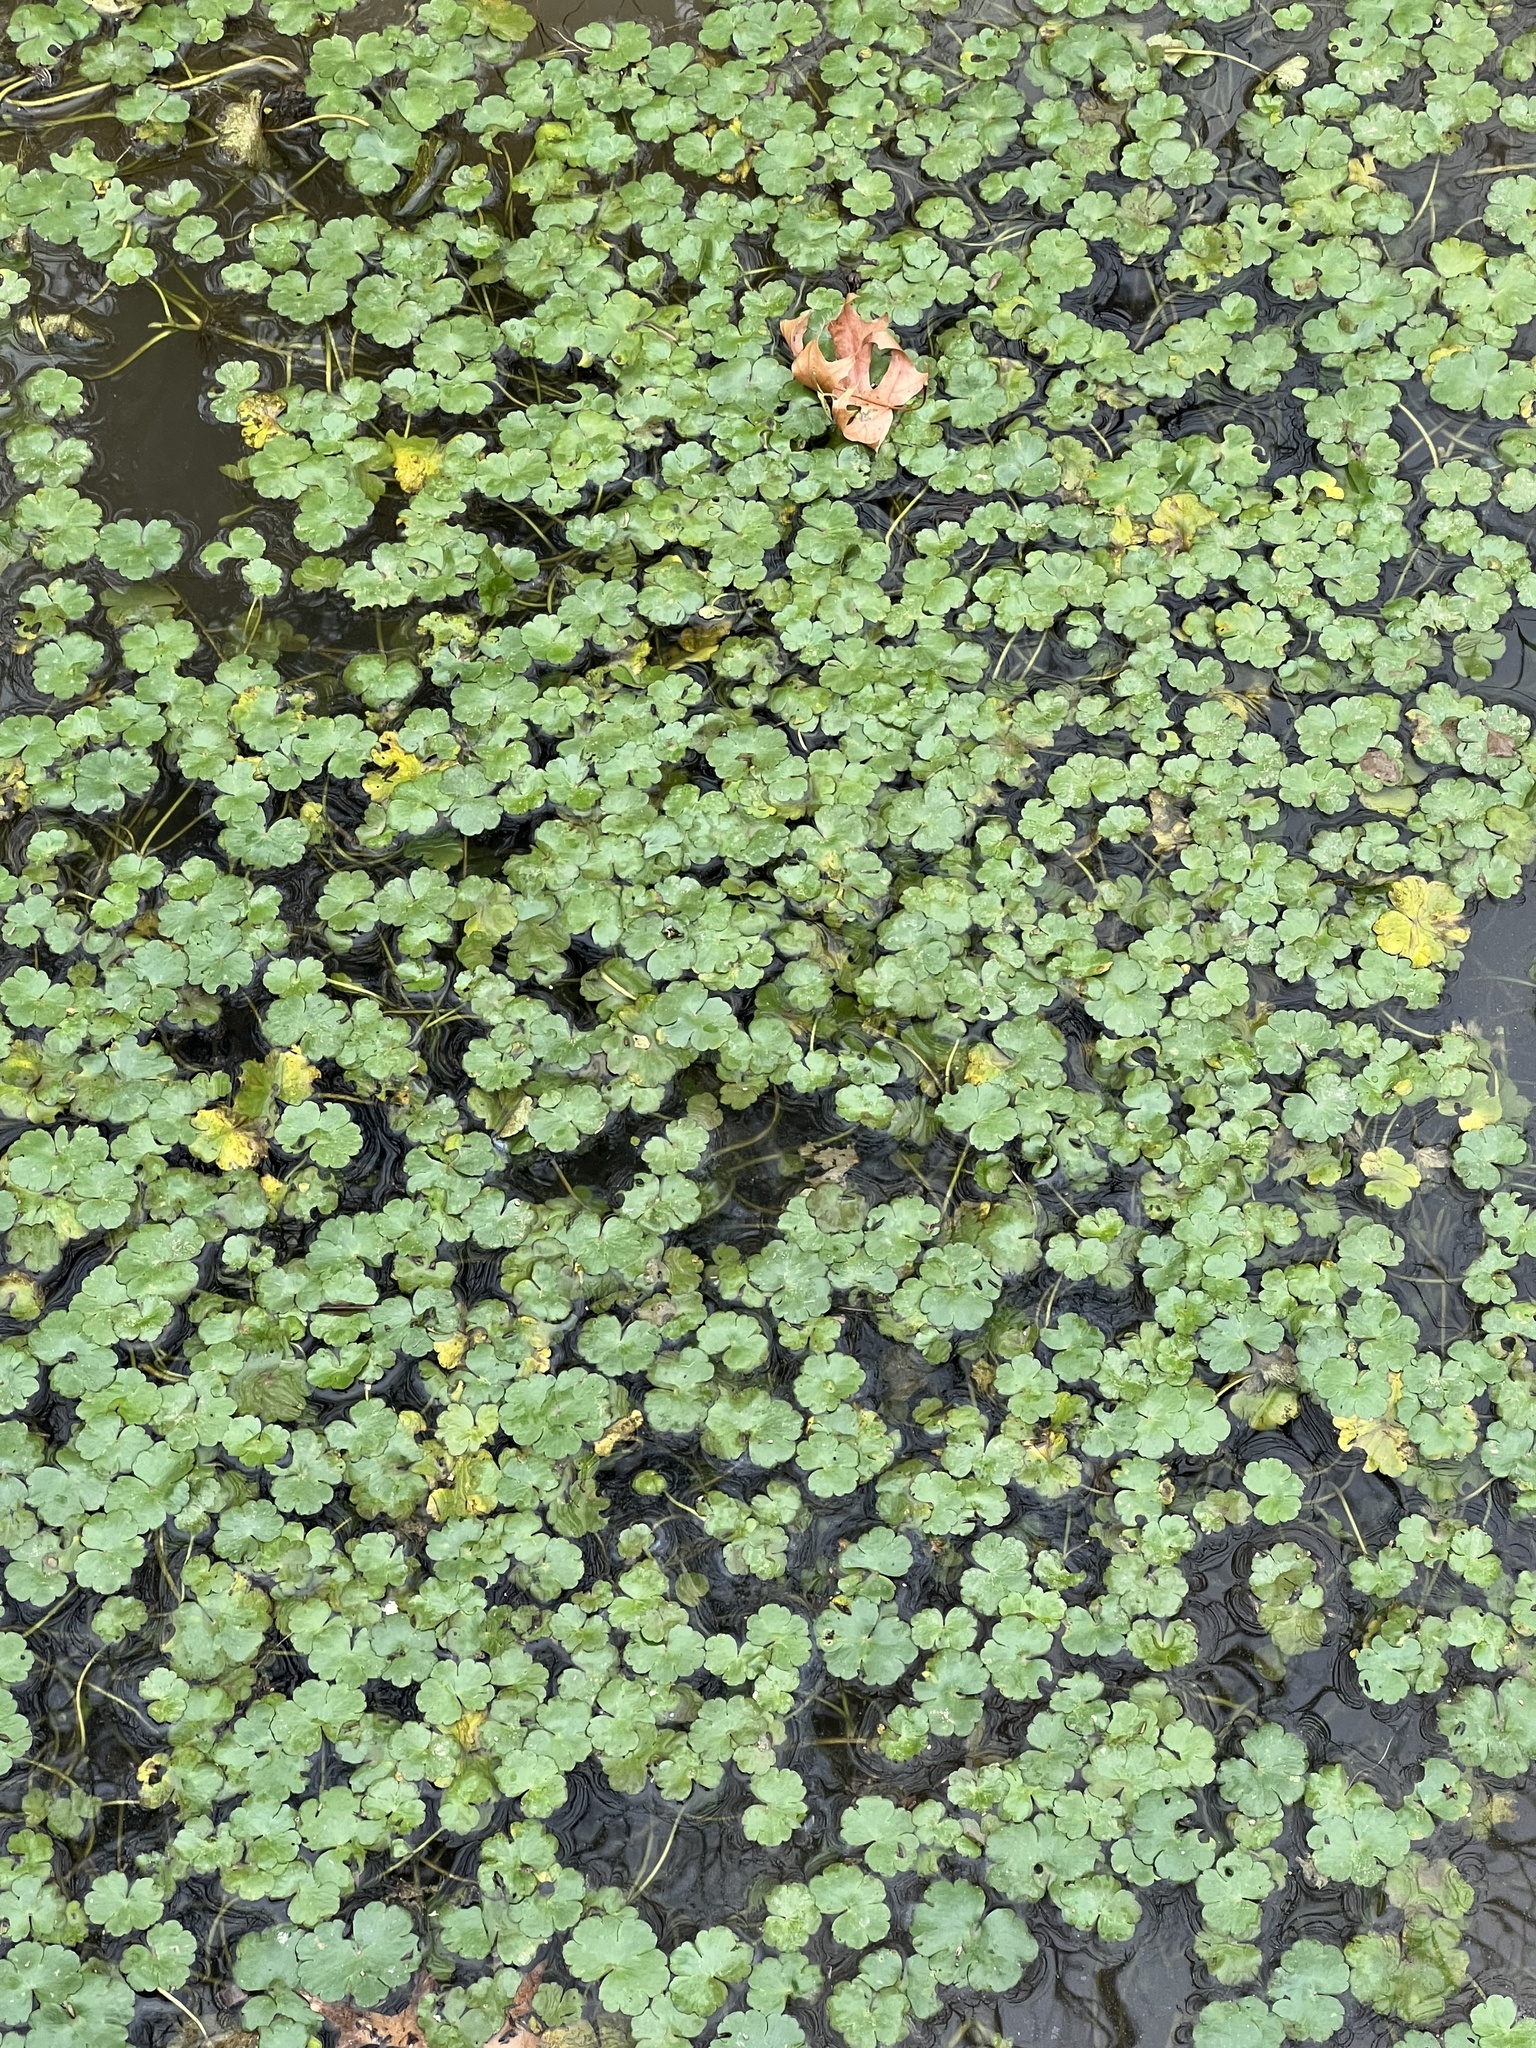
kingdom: Plantae
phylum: Tracheophyta
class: Magnoliopsida
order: Apiales
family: Araliaceae
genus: Hydrocotyle
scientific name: Hydrocotyle ranunculoides
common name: Floating pennywort
